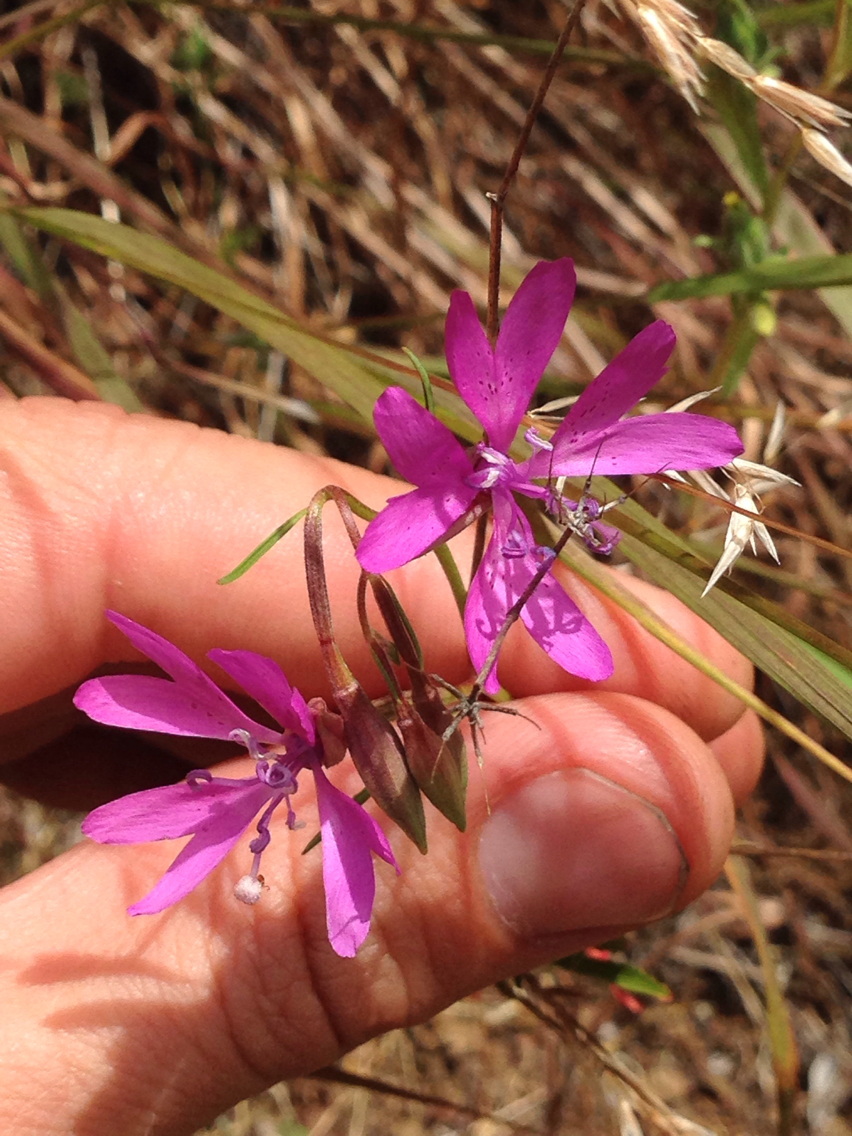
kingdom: Plantae
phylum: Tracheophyta
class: Magnoliopsida
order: Myrtales
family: Onagraceae
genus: Clarkia
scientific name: Clarkia biloba
